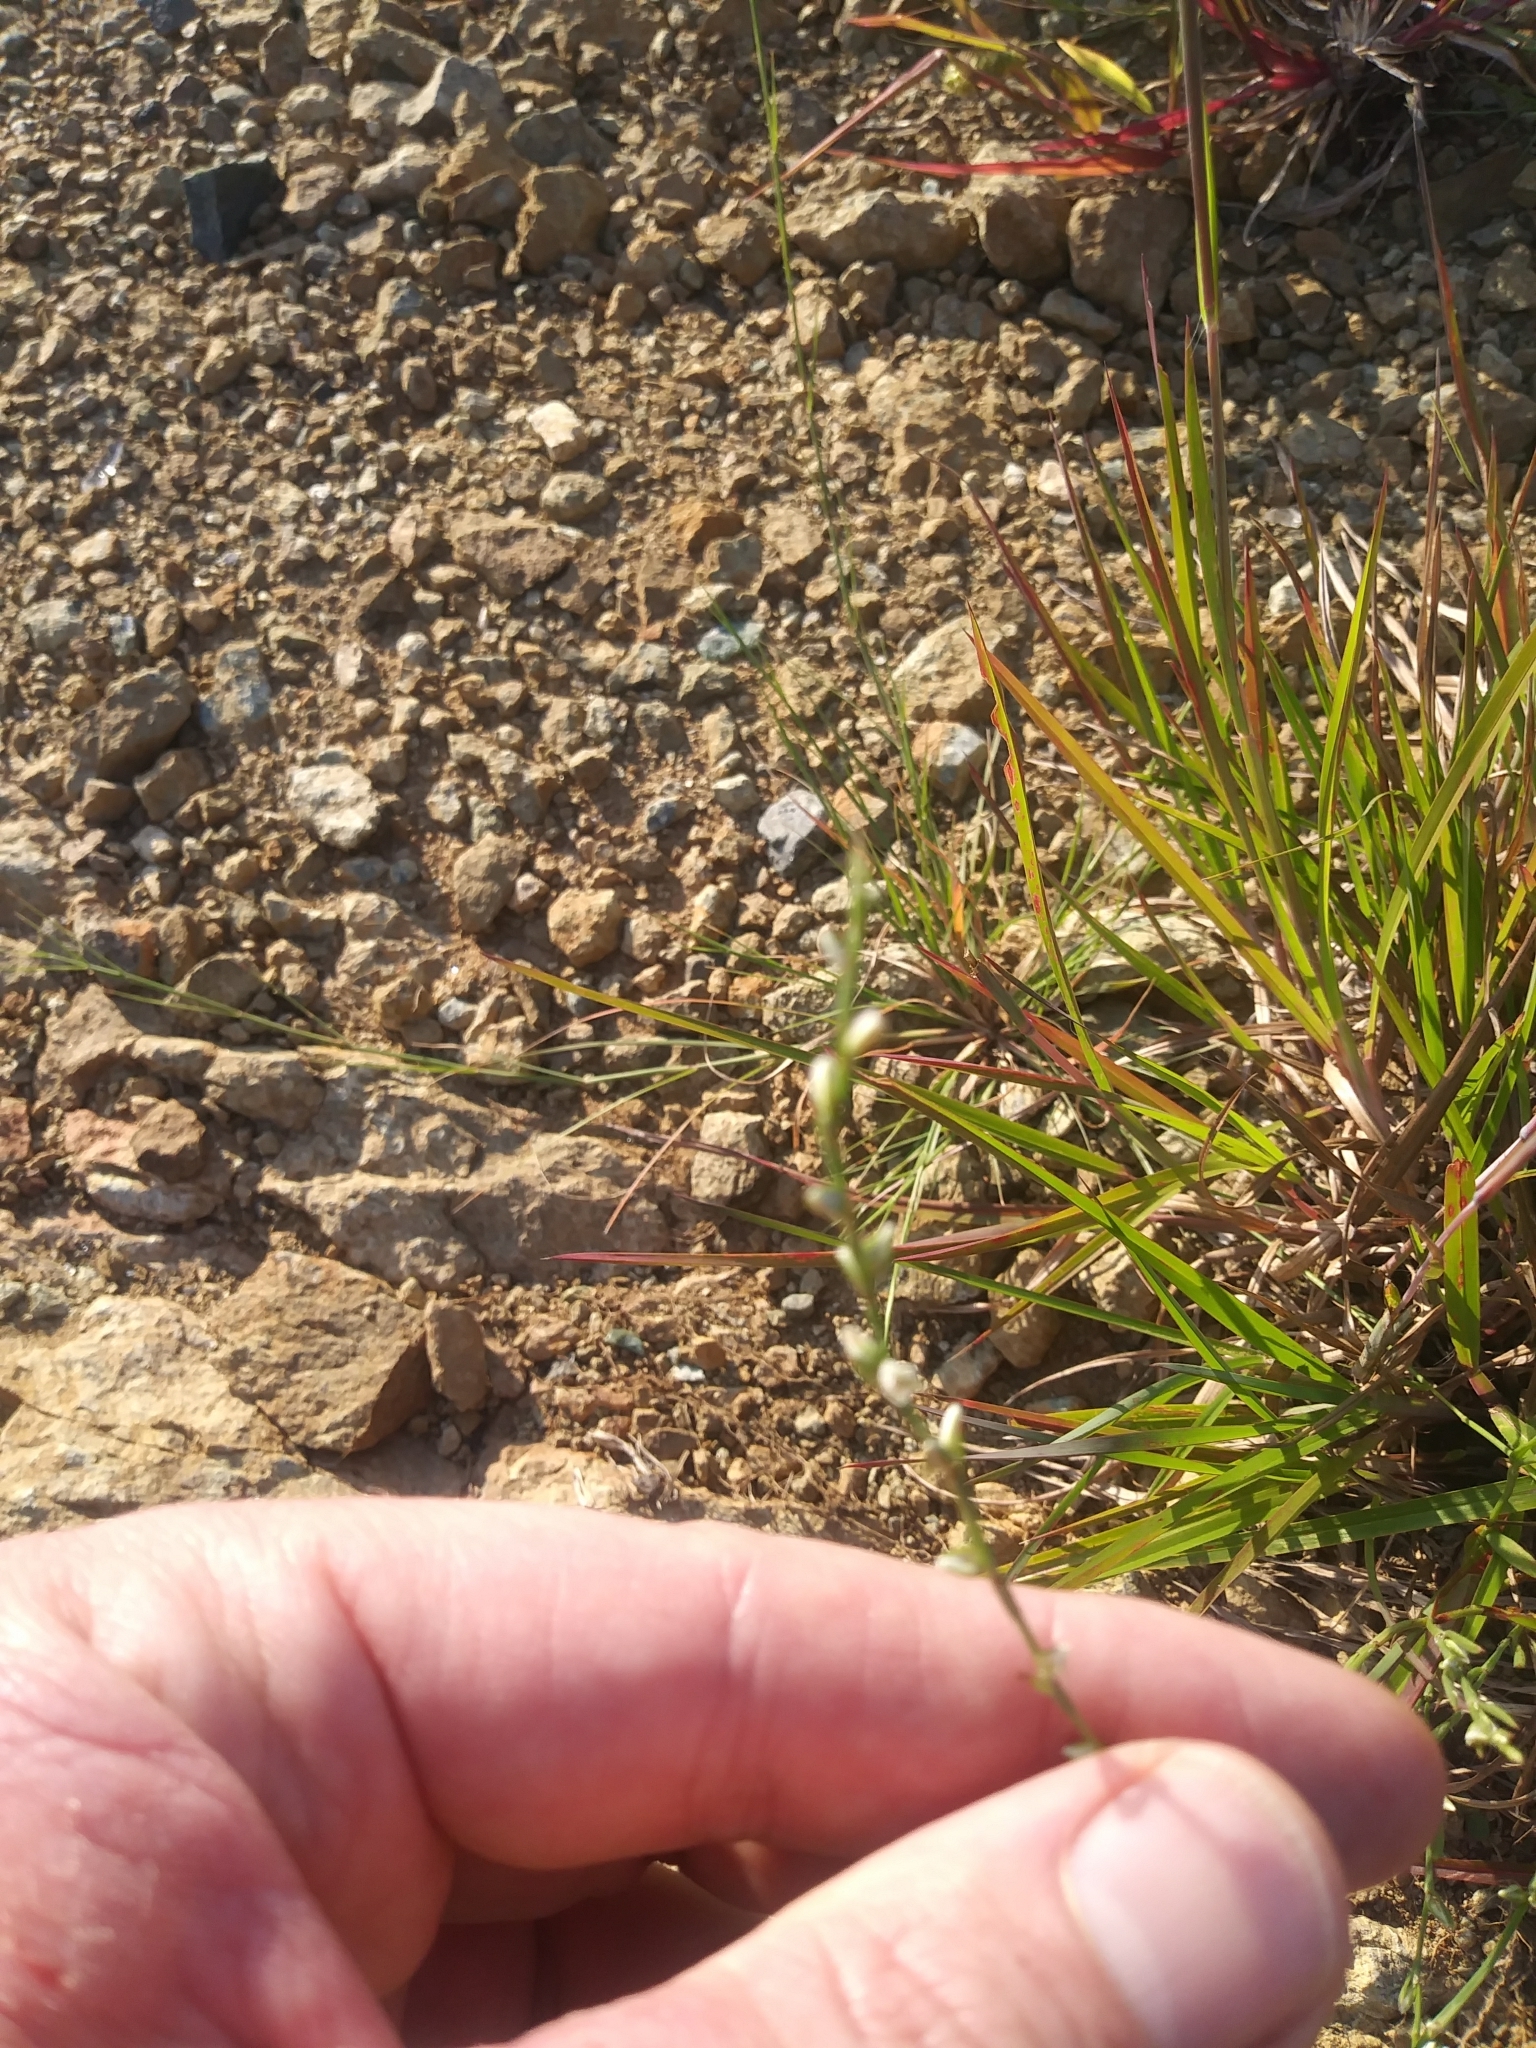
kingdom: Plantae
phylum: Tracheophyta
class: Magnoliopsida
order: Caryophyllales
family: Polygonaceae
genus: Polygonum
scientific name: Polygonum tenue
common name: Pleat-leaved knotweed
